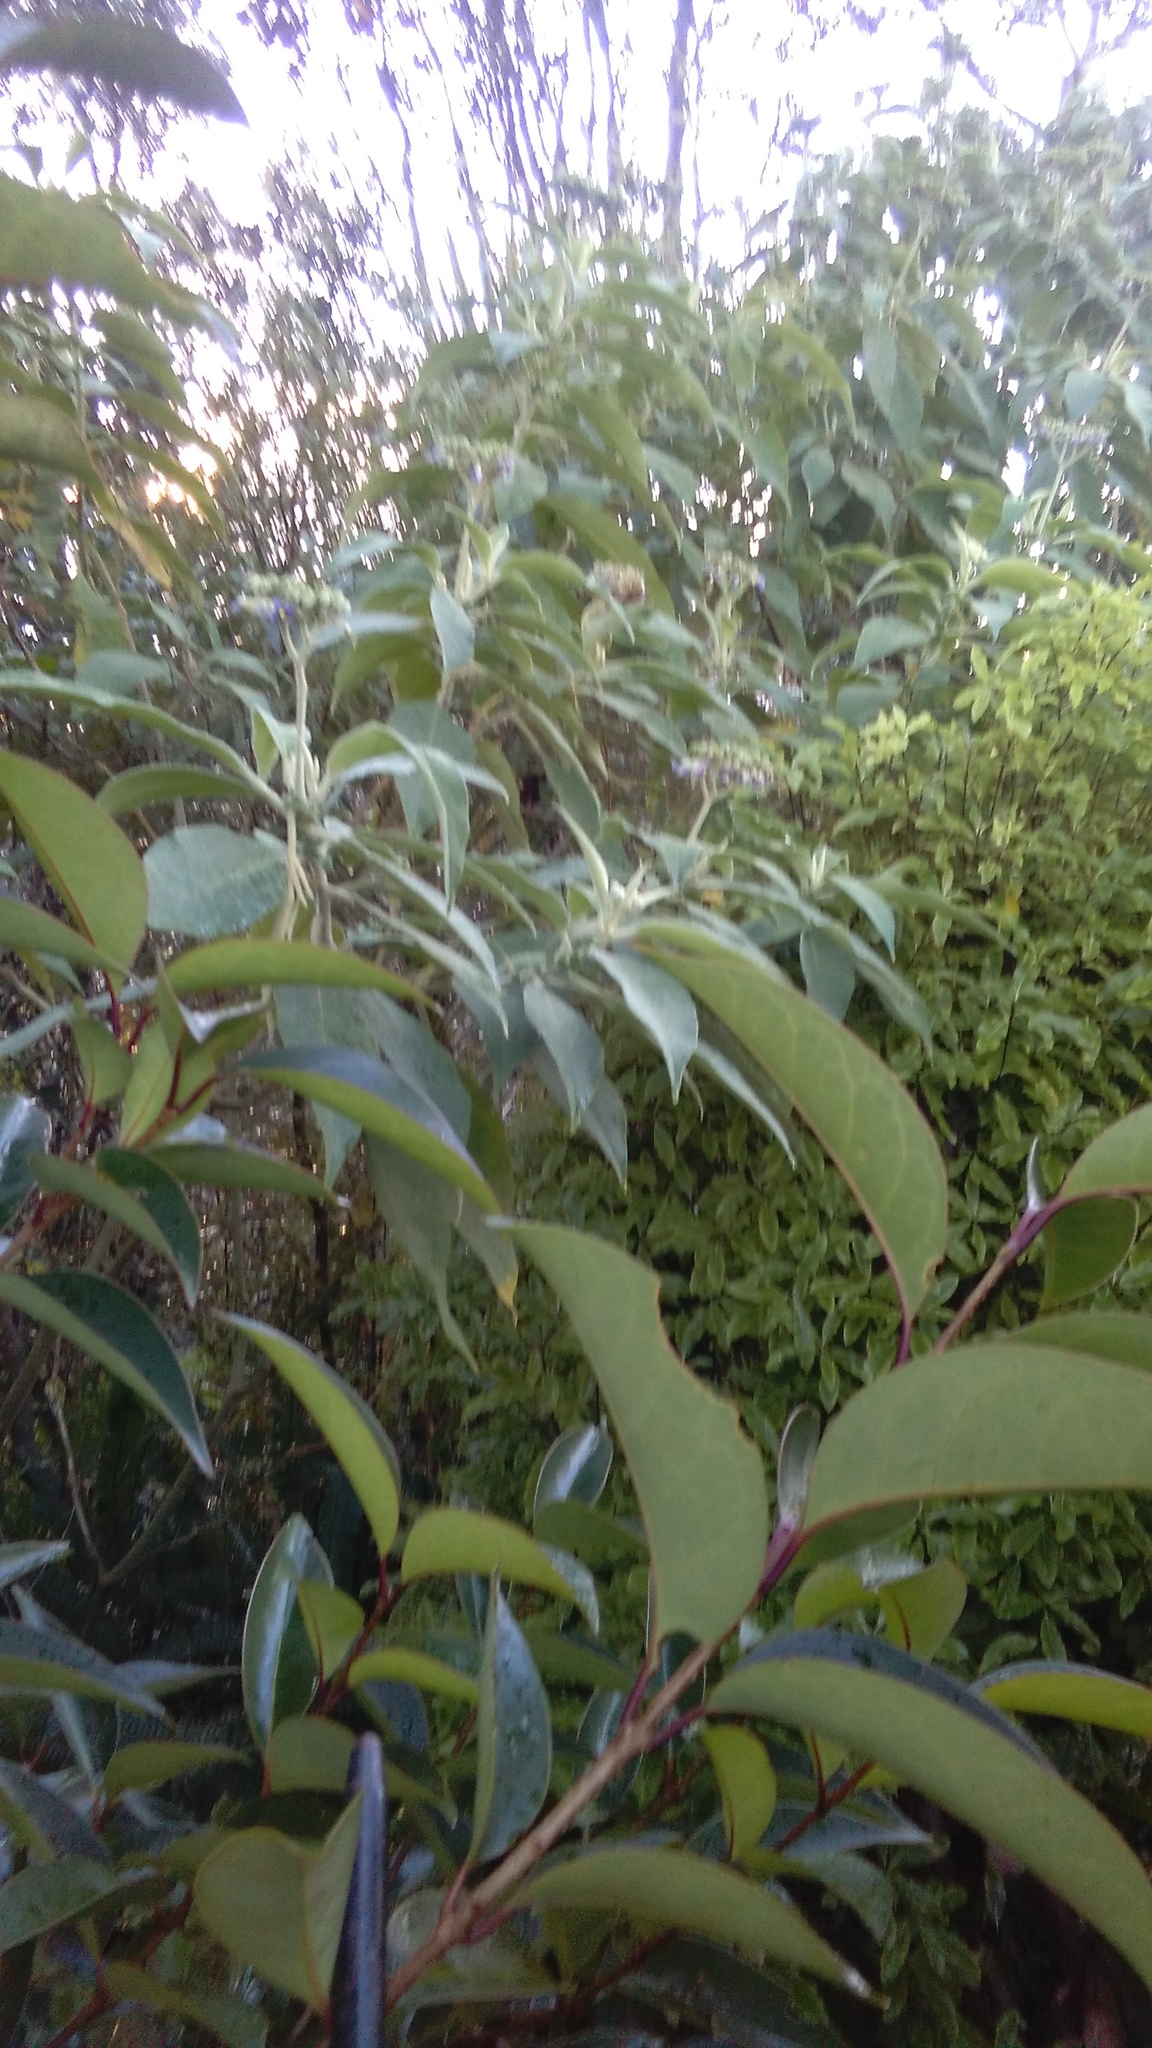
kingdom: Plantae
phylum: Tracheophyta
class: Magnoliopsida
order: Apiales
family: Pittosporaceae
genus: Pittosporum
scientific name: Pittosporum eugenioides
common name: Lemonwood
